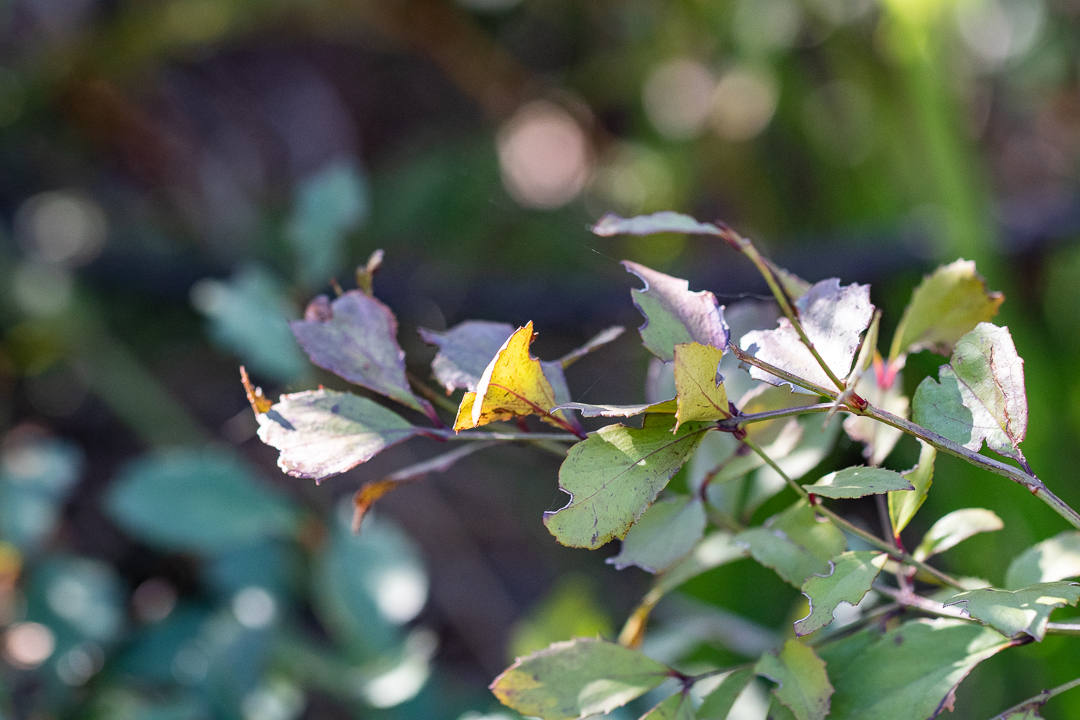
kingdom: Plantae
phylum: Tracheophyta
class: Magnoliopsida
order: Lamiales
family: Stilbaceae
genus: Halleria
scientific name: Halleria lucida
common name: Tree fuschia
